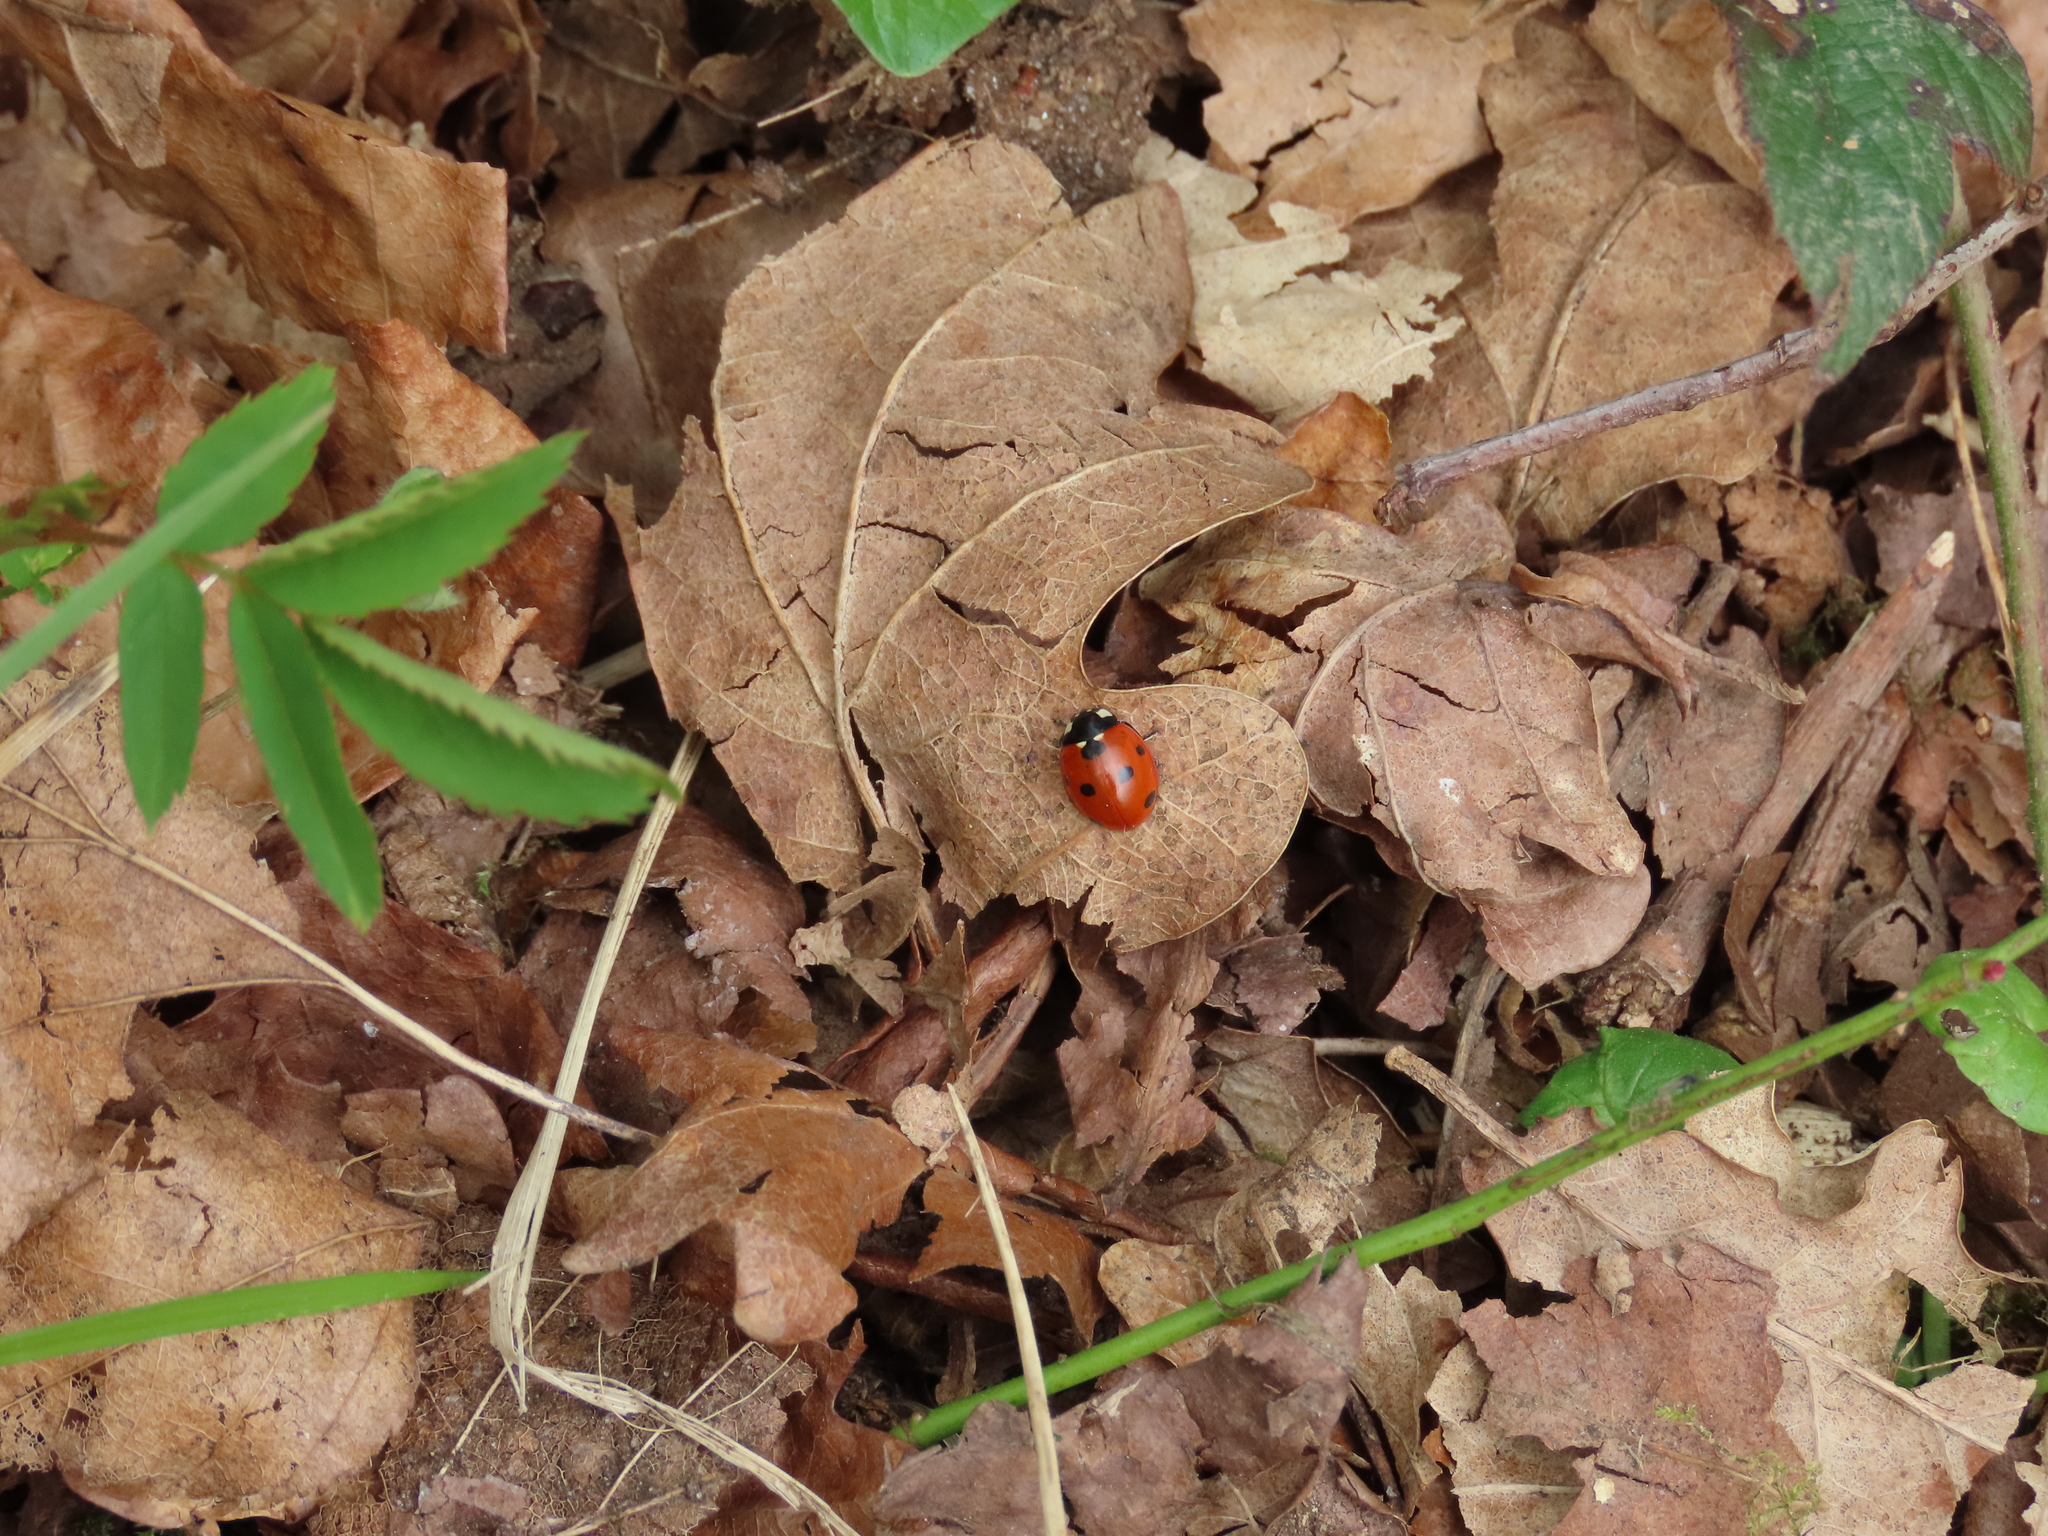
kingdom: Animalia
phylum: Arthropoda
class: Insecta
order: Coleoptera
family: Coccinellidae
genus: Coccinella
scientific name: Coccinella septempunctata
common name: Sevenspotted lady beetle
